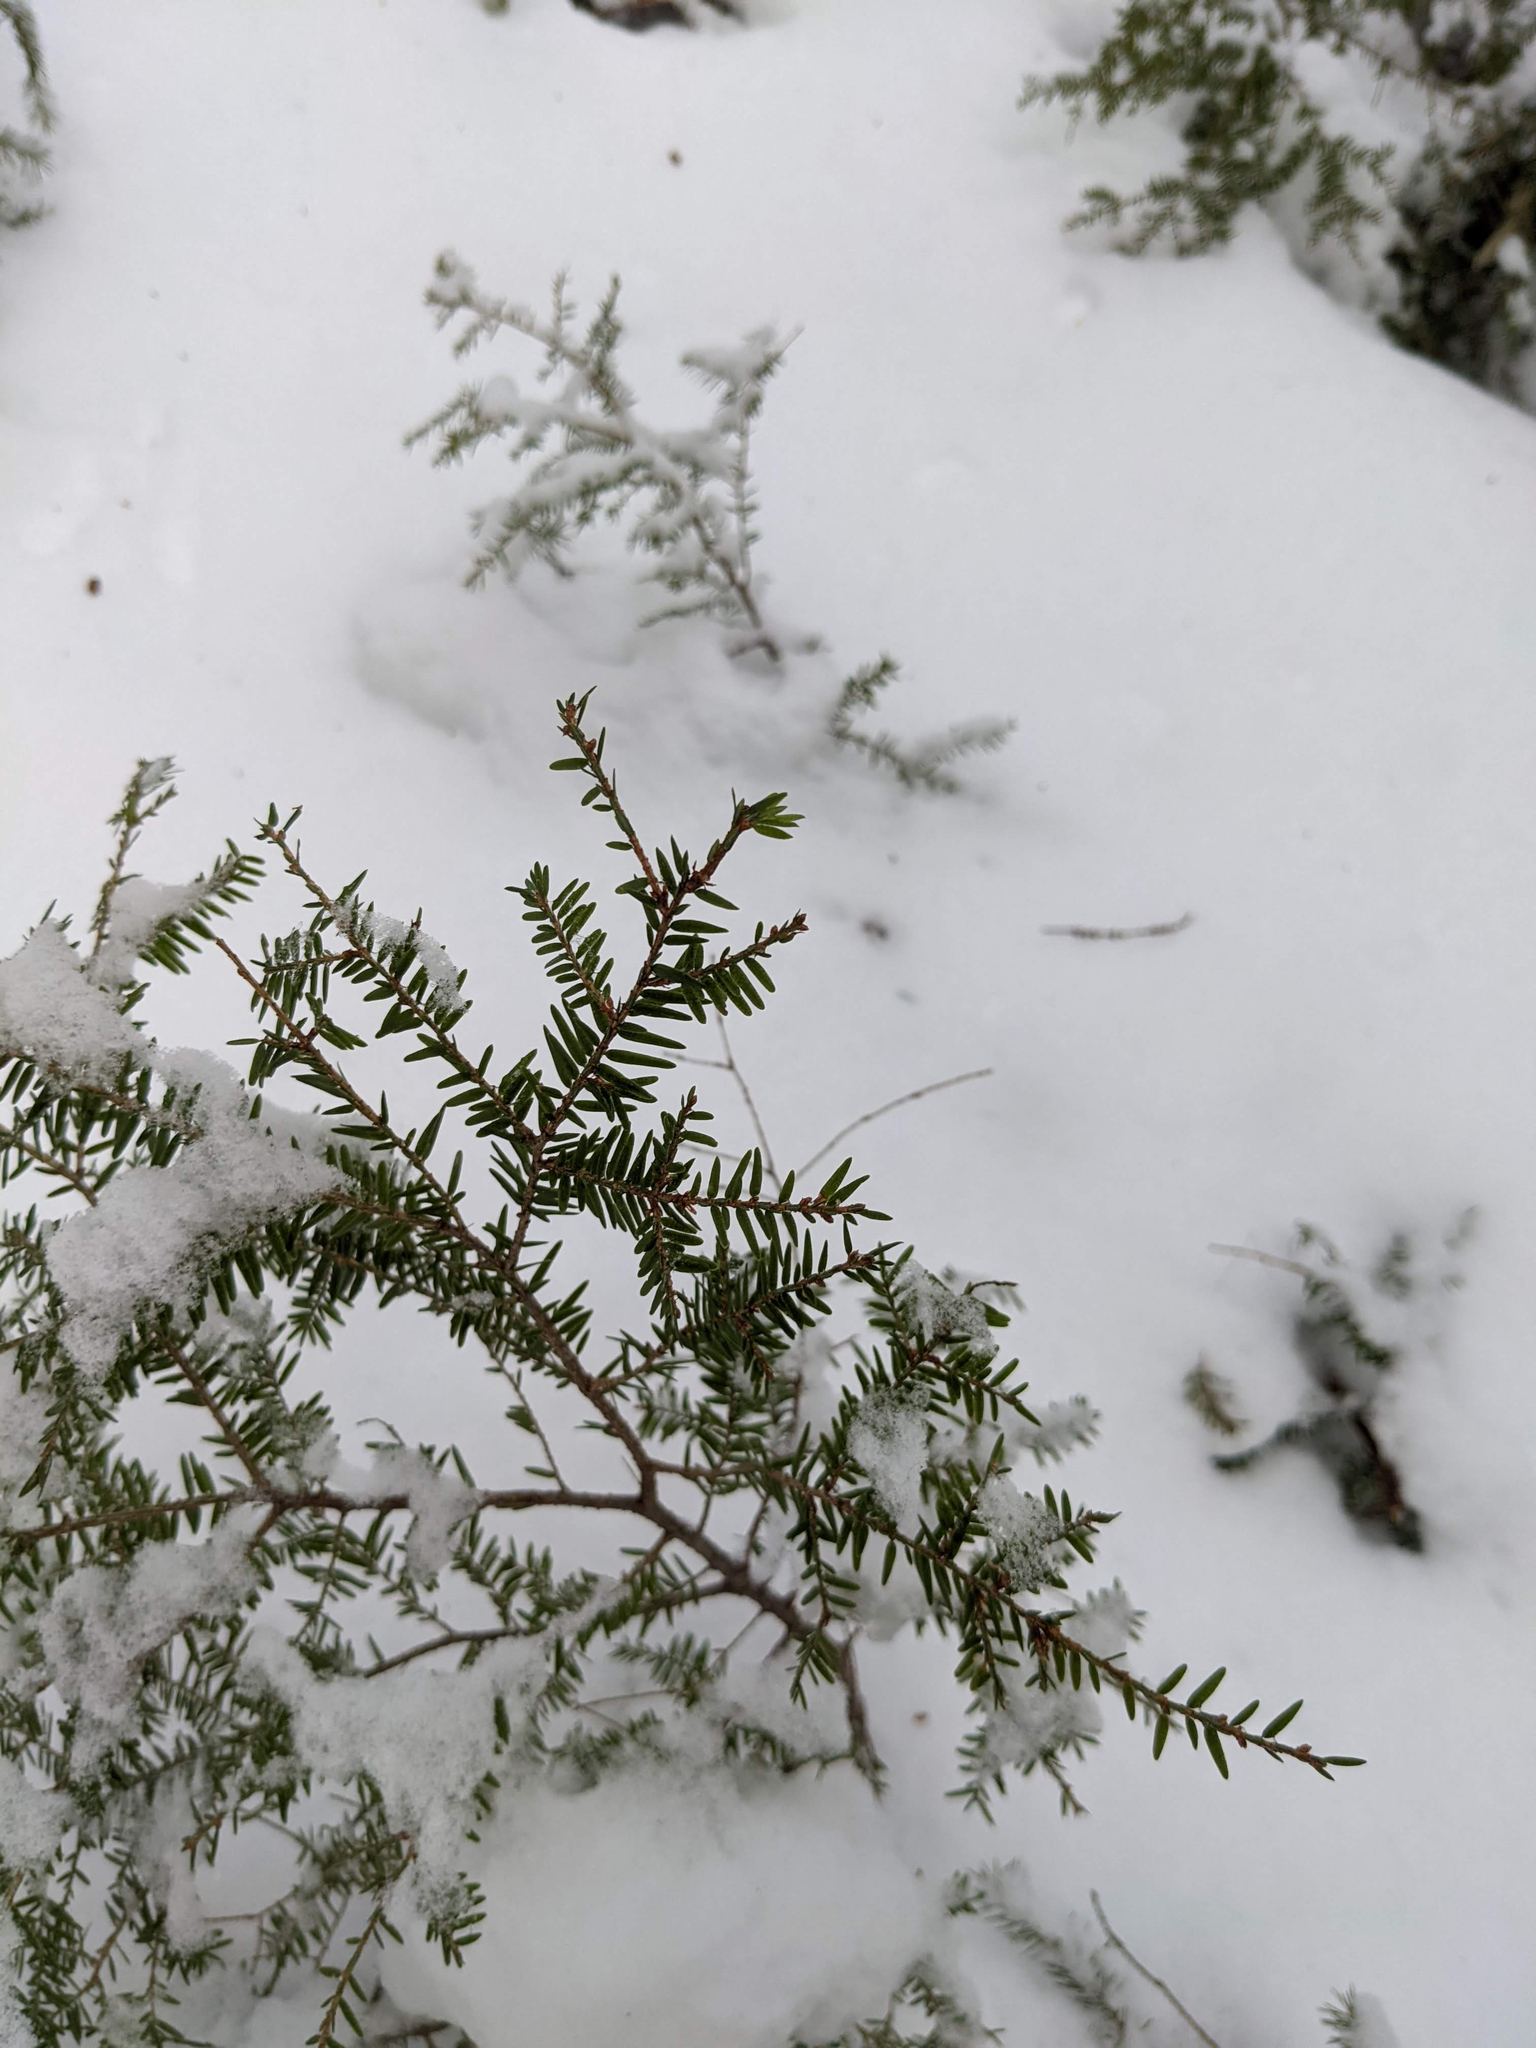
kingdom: Plantae
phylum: Tracheophyta
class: Pinopsida
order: Pinales
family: Pinaceae
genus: Tsuga
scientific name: Tsuga canadensis
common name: Eastern hemlock
